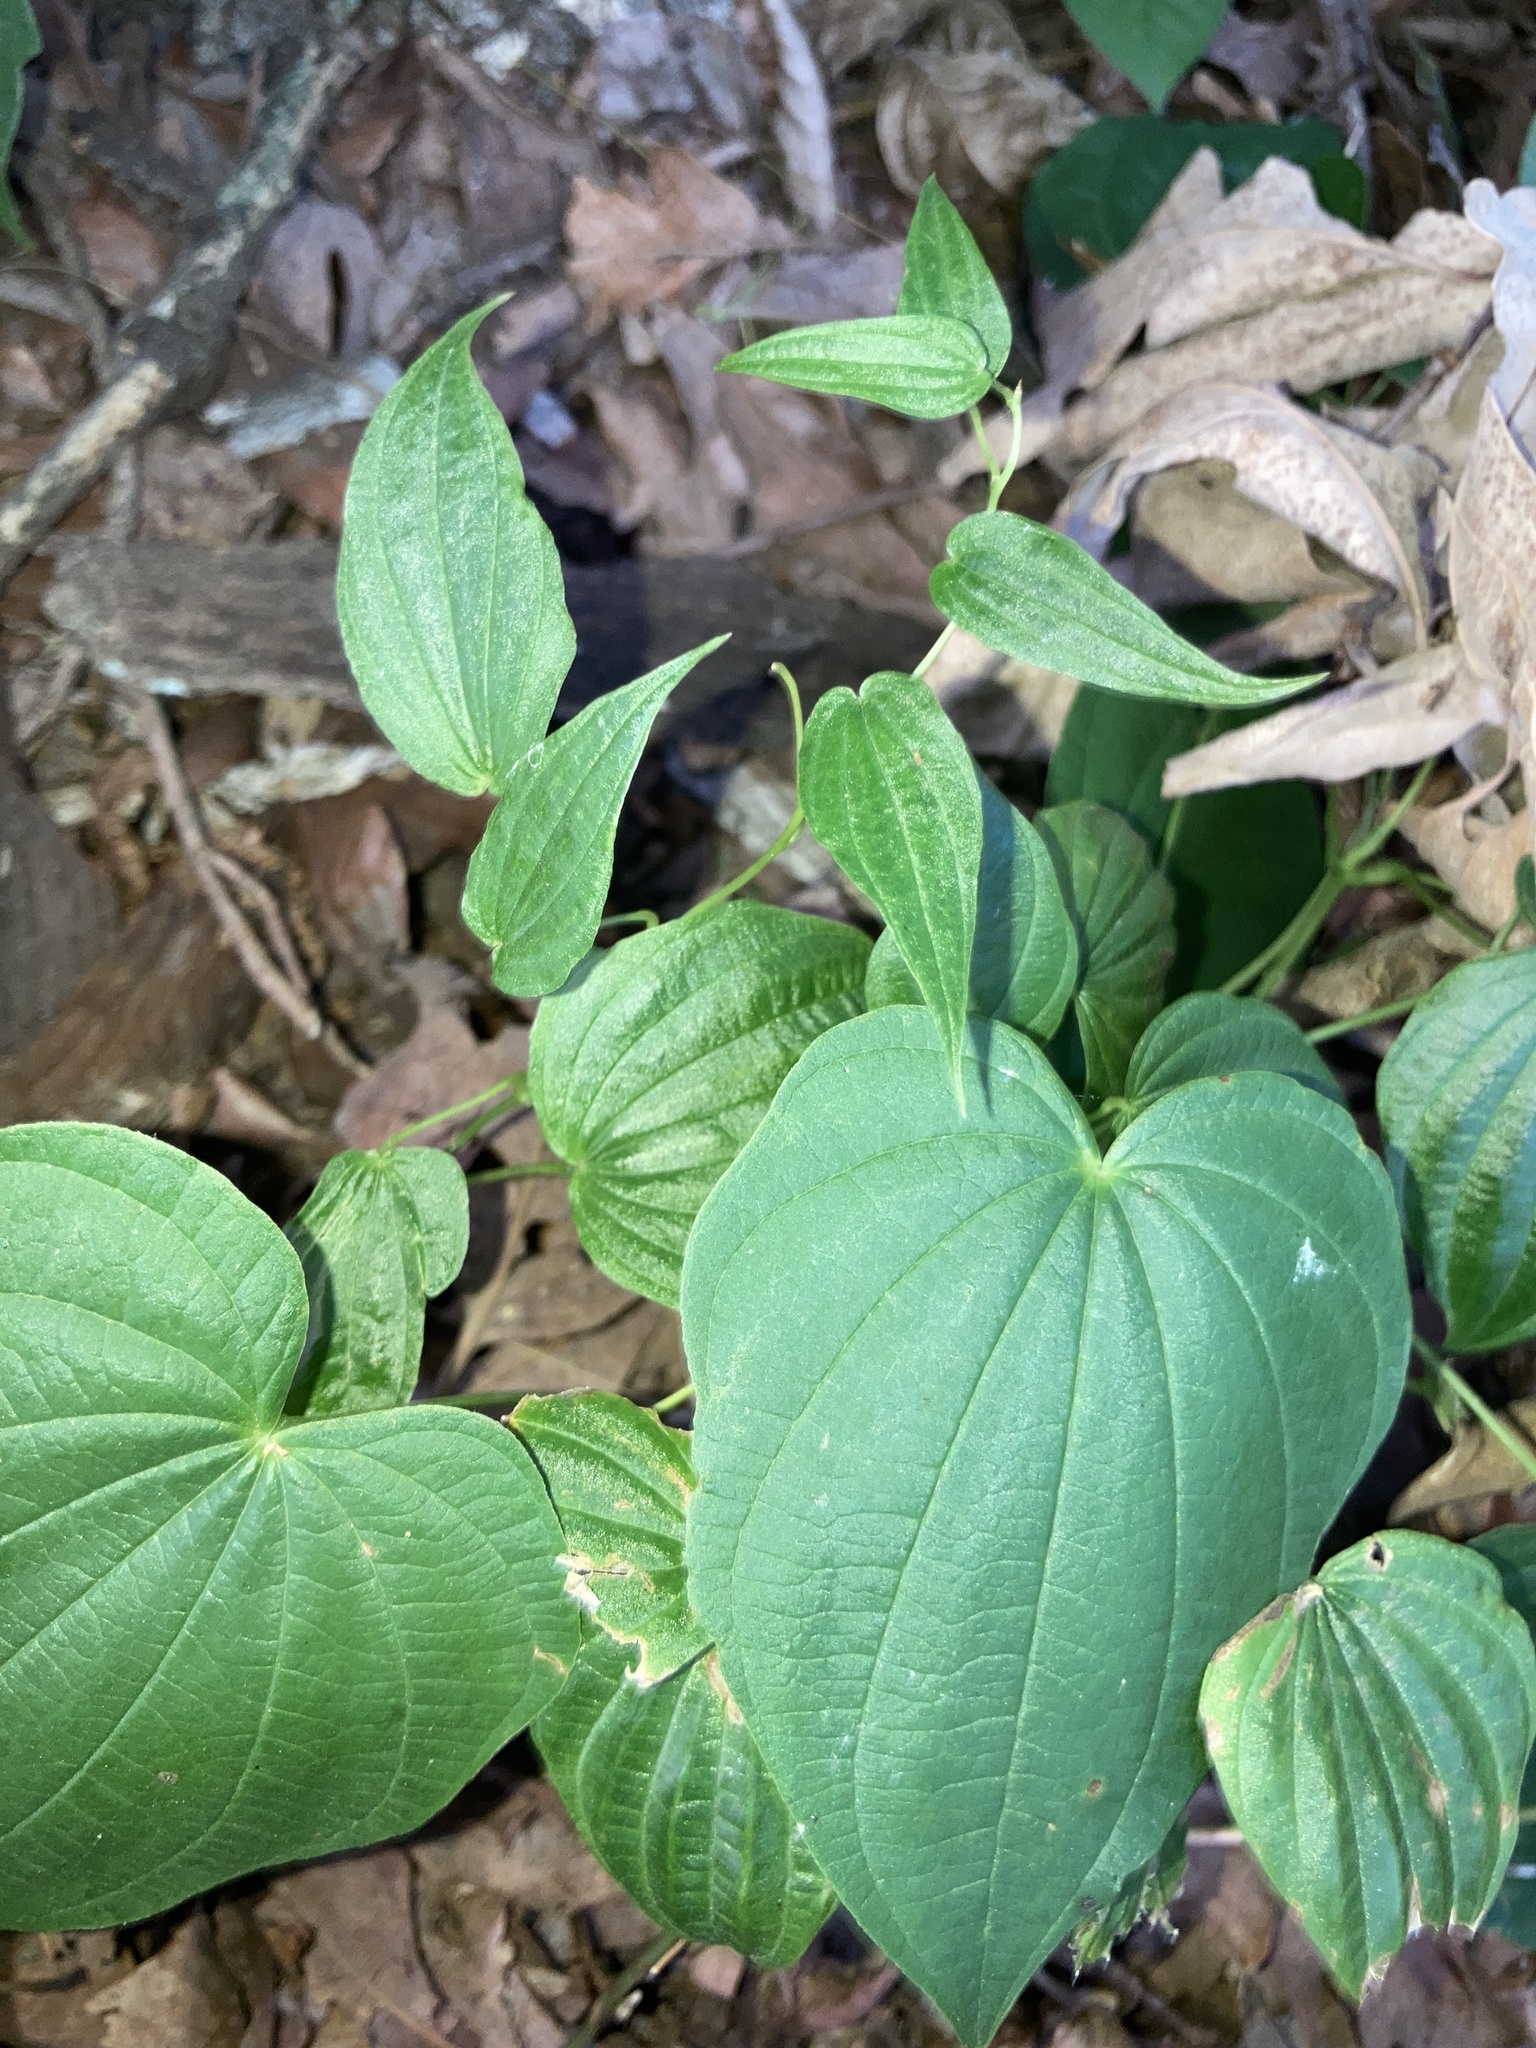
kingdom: Plantae
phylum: Tracheophyta
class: Liliopsida
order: Dioscoreales
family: Dioscoreaceae
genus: Dioscorea
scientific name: Dioscorea villosa
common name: Wild yam
